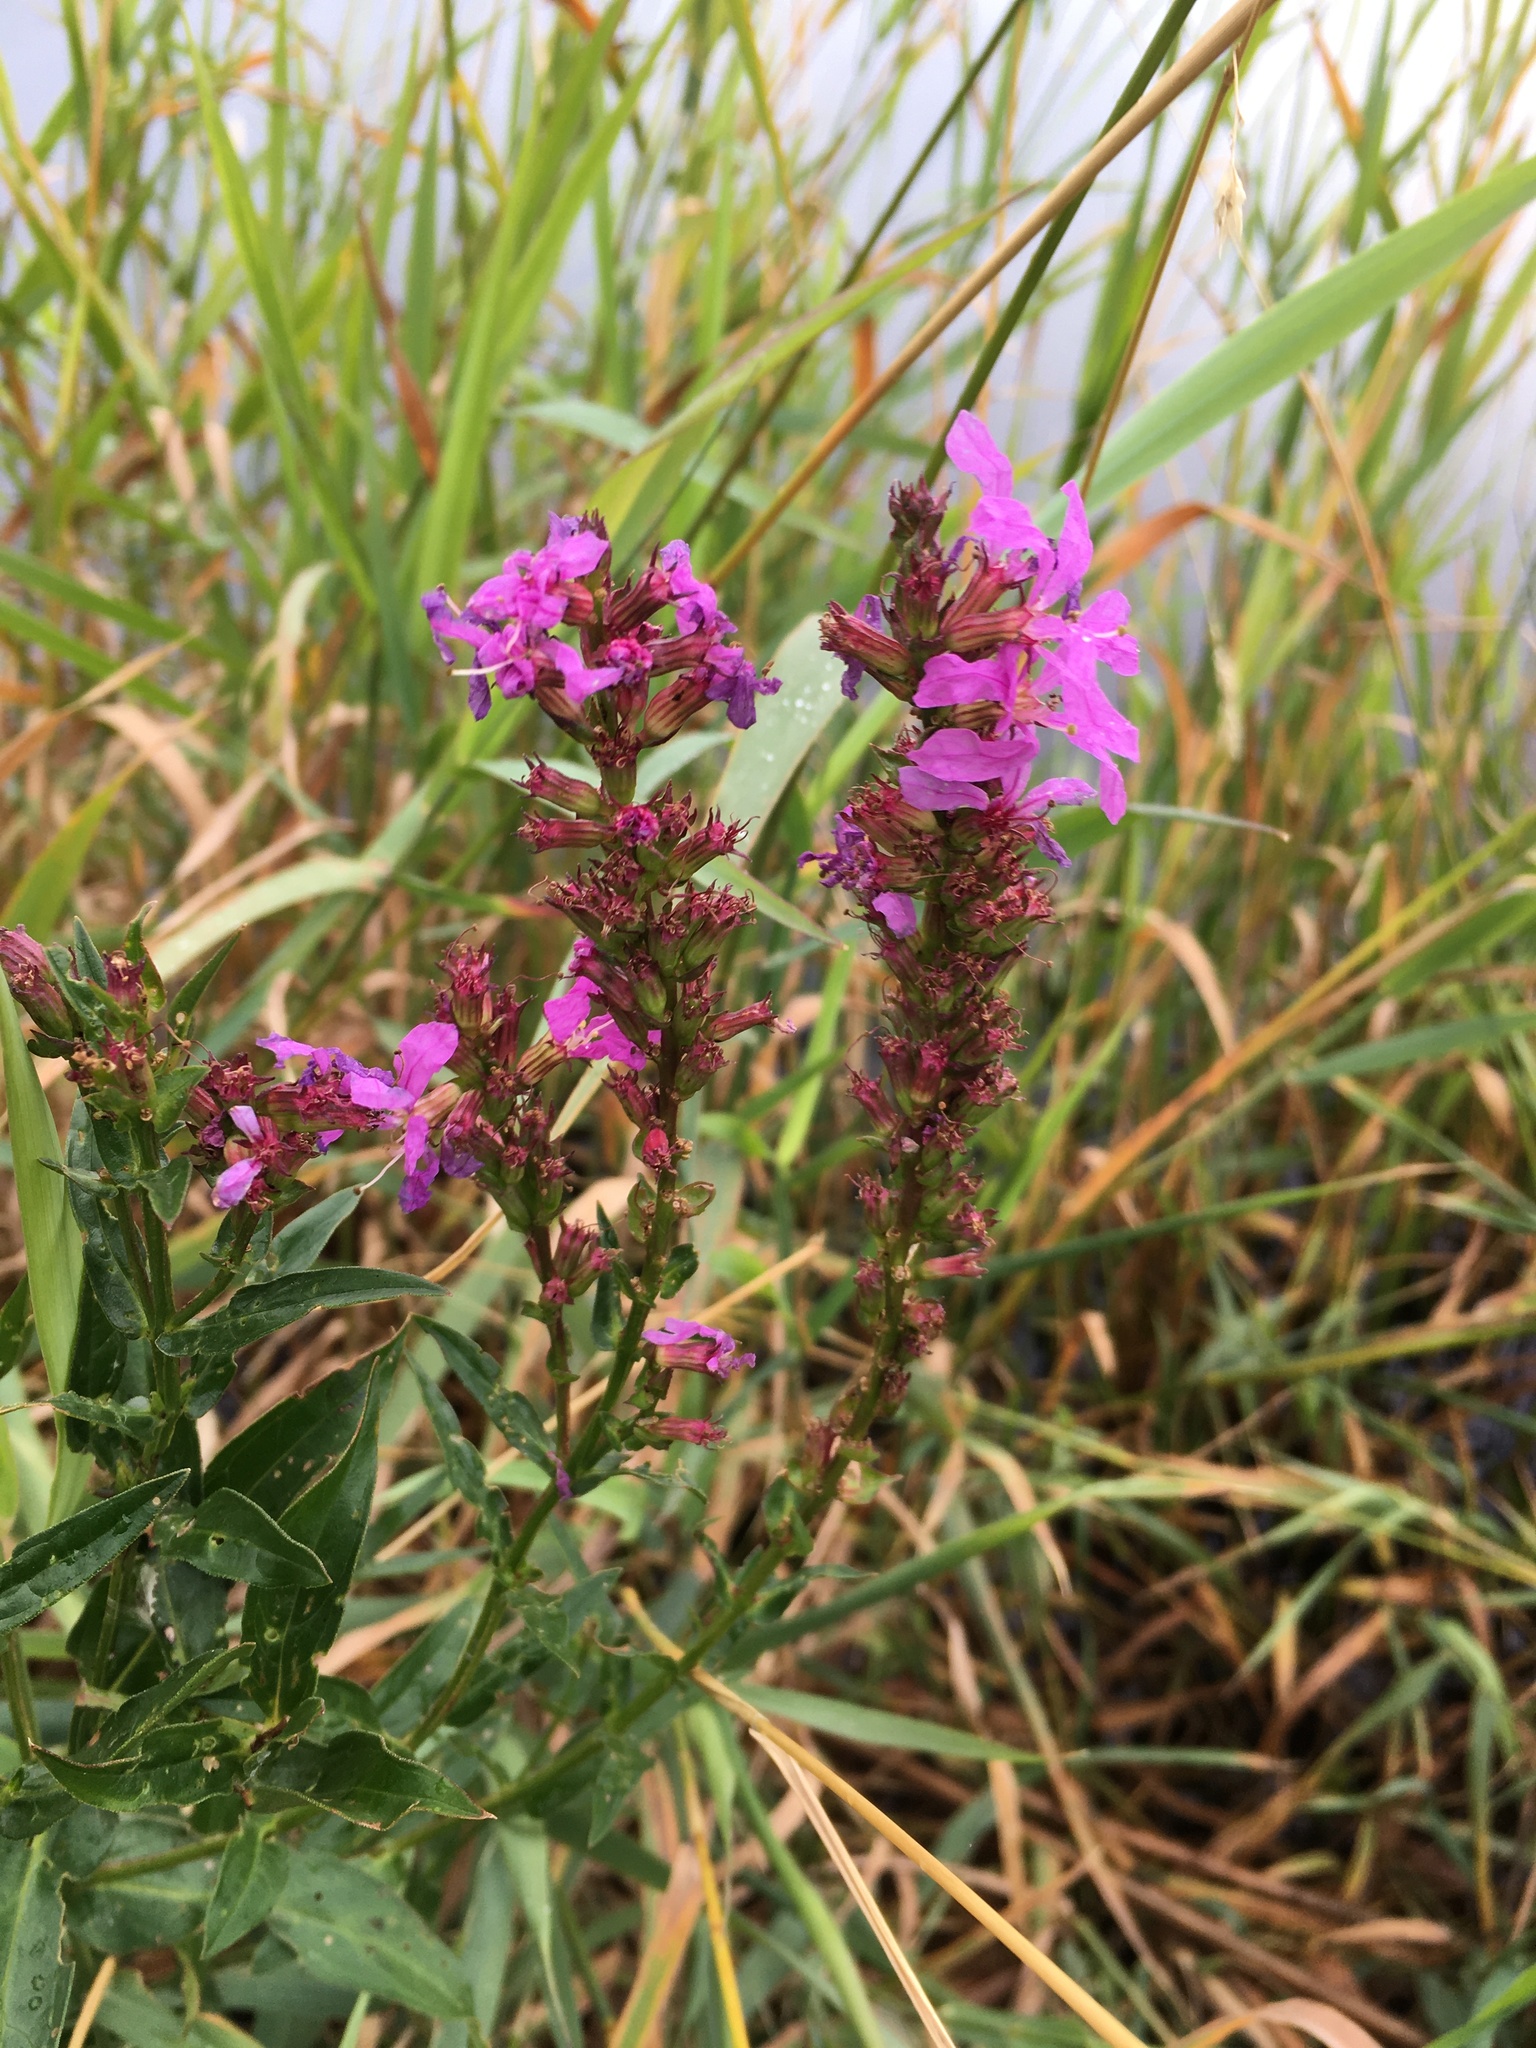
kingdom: Plantae
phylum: Tracheophyta
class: Magnoliopsida
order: Myrtales
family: Lythraceae
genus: Lythrum
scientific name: Lythrum salicaria
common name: Purple loosestrife
